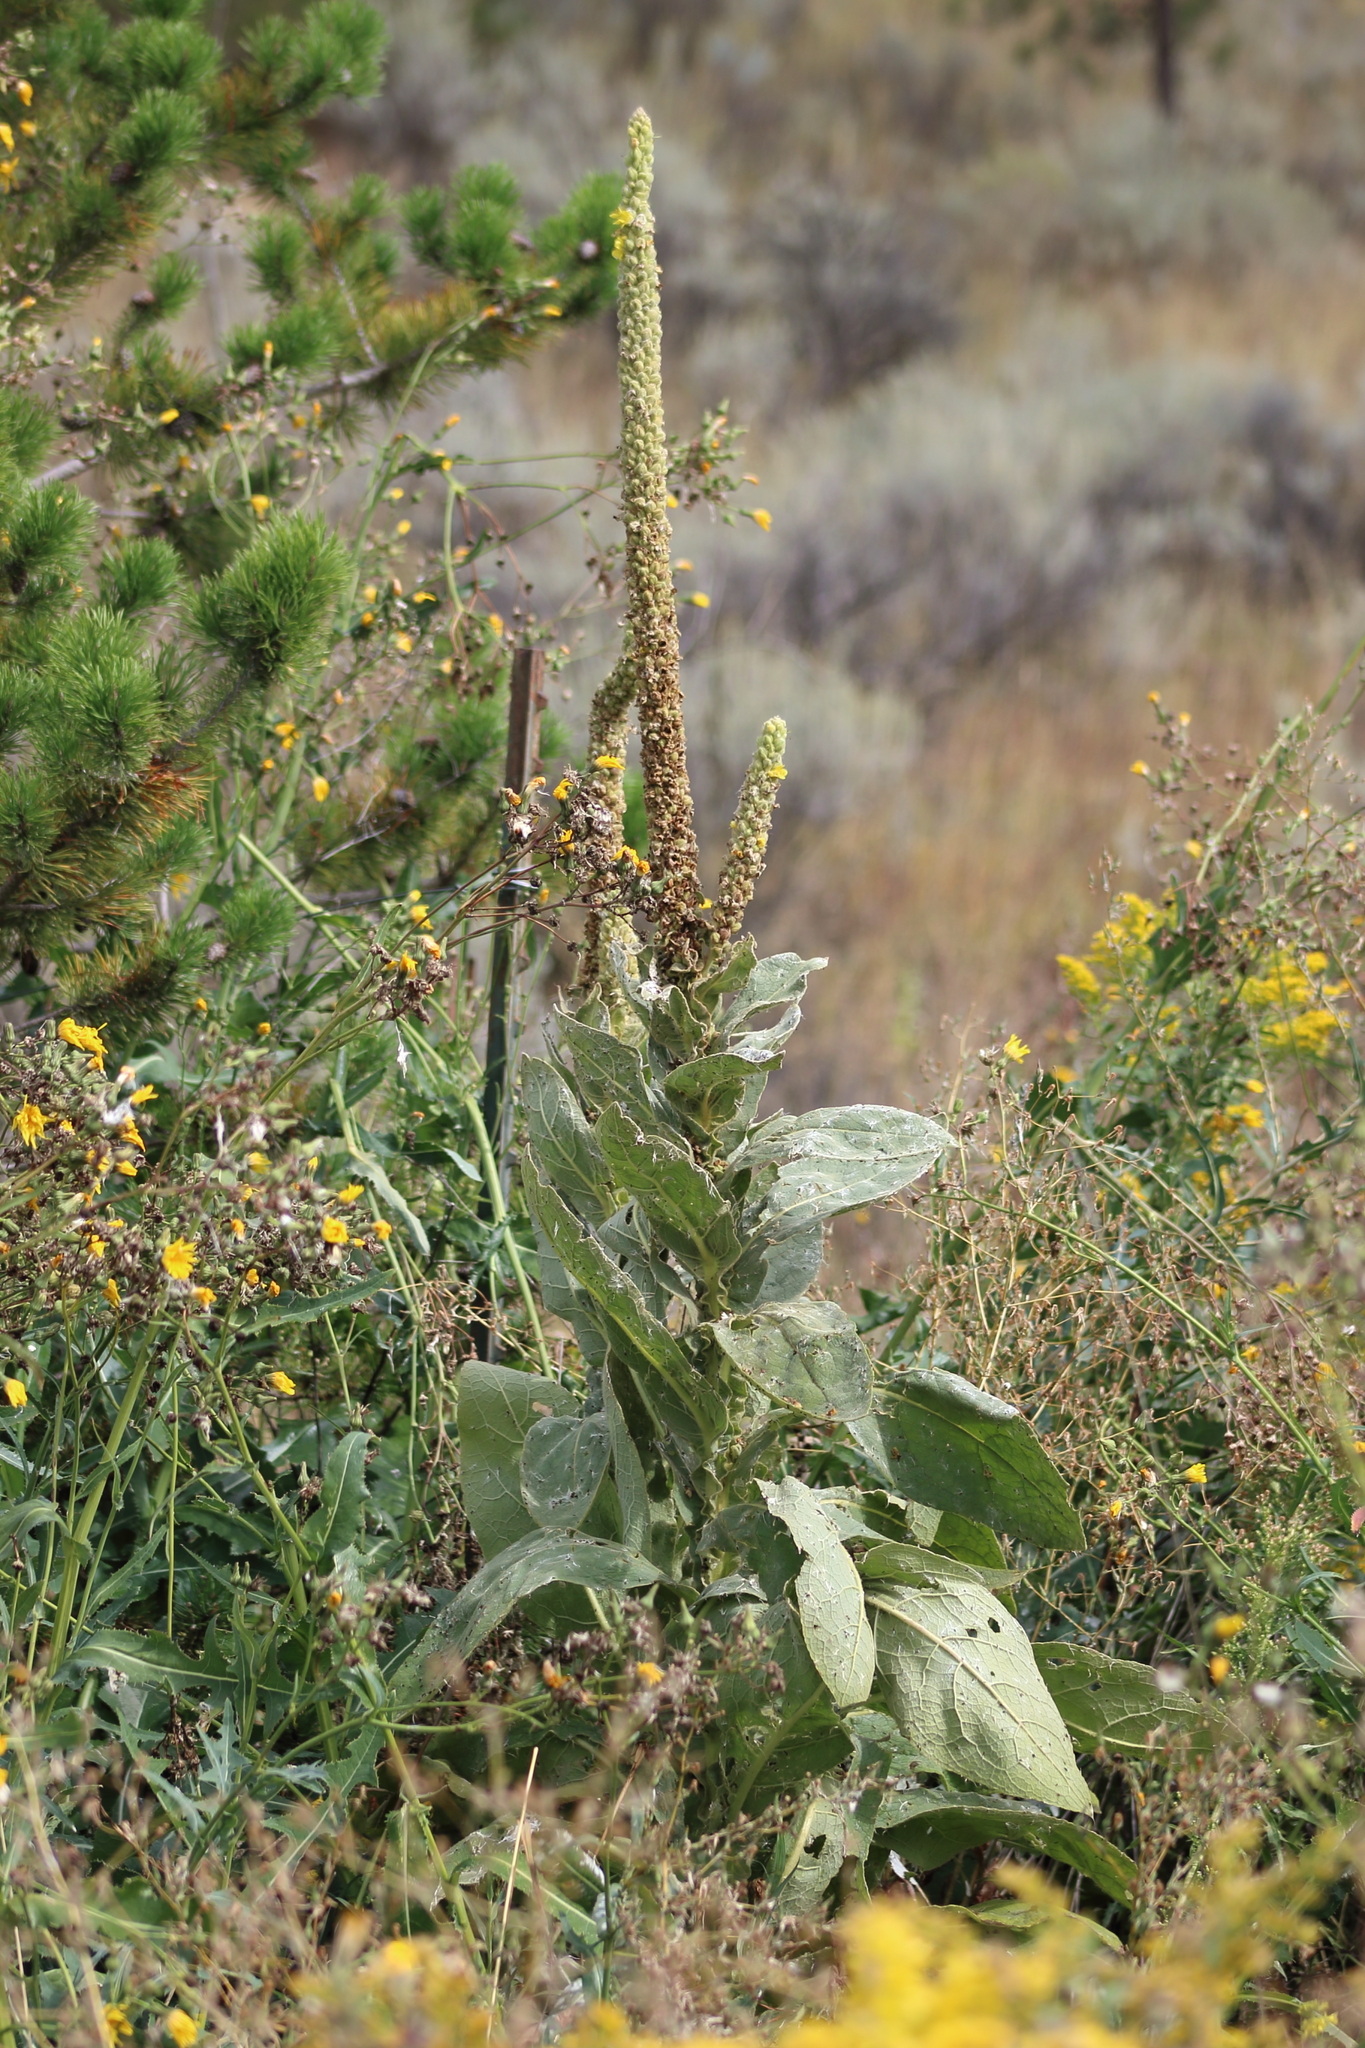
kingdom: Plantae
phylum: Tracheophyta
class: Magnoliopsida
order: Lamiales
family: Scrophulariaceae
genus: Verbascum
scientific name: Verbascum thapsus
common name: Common mullein
